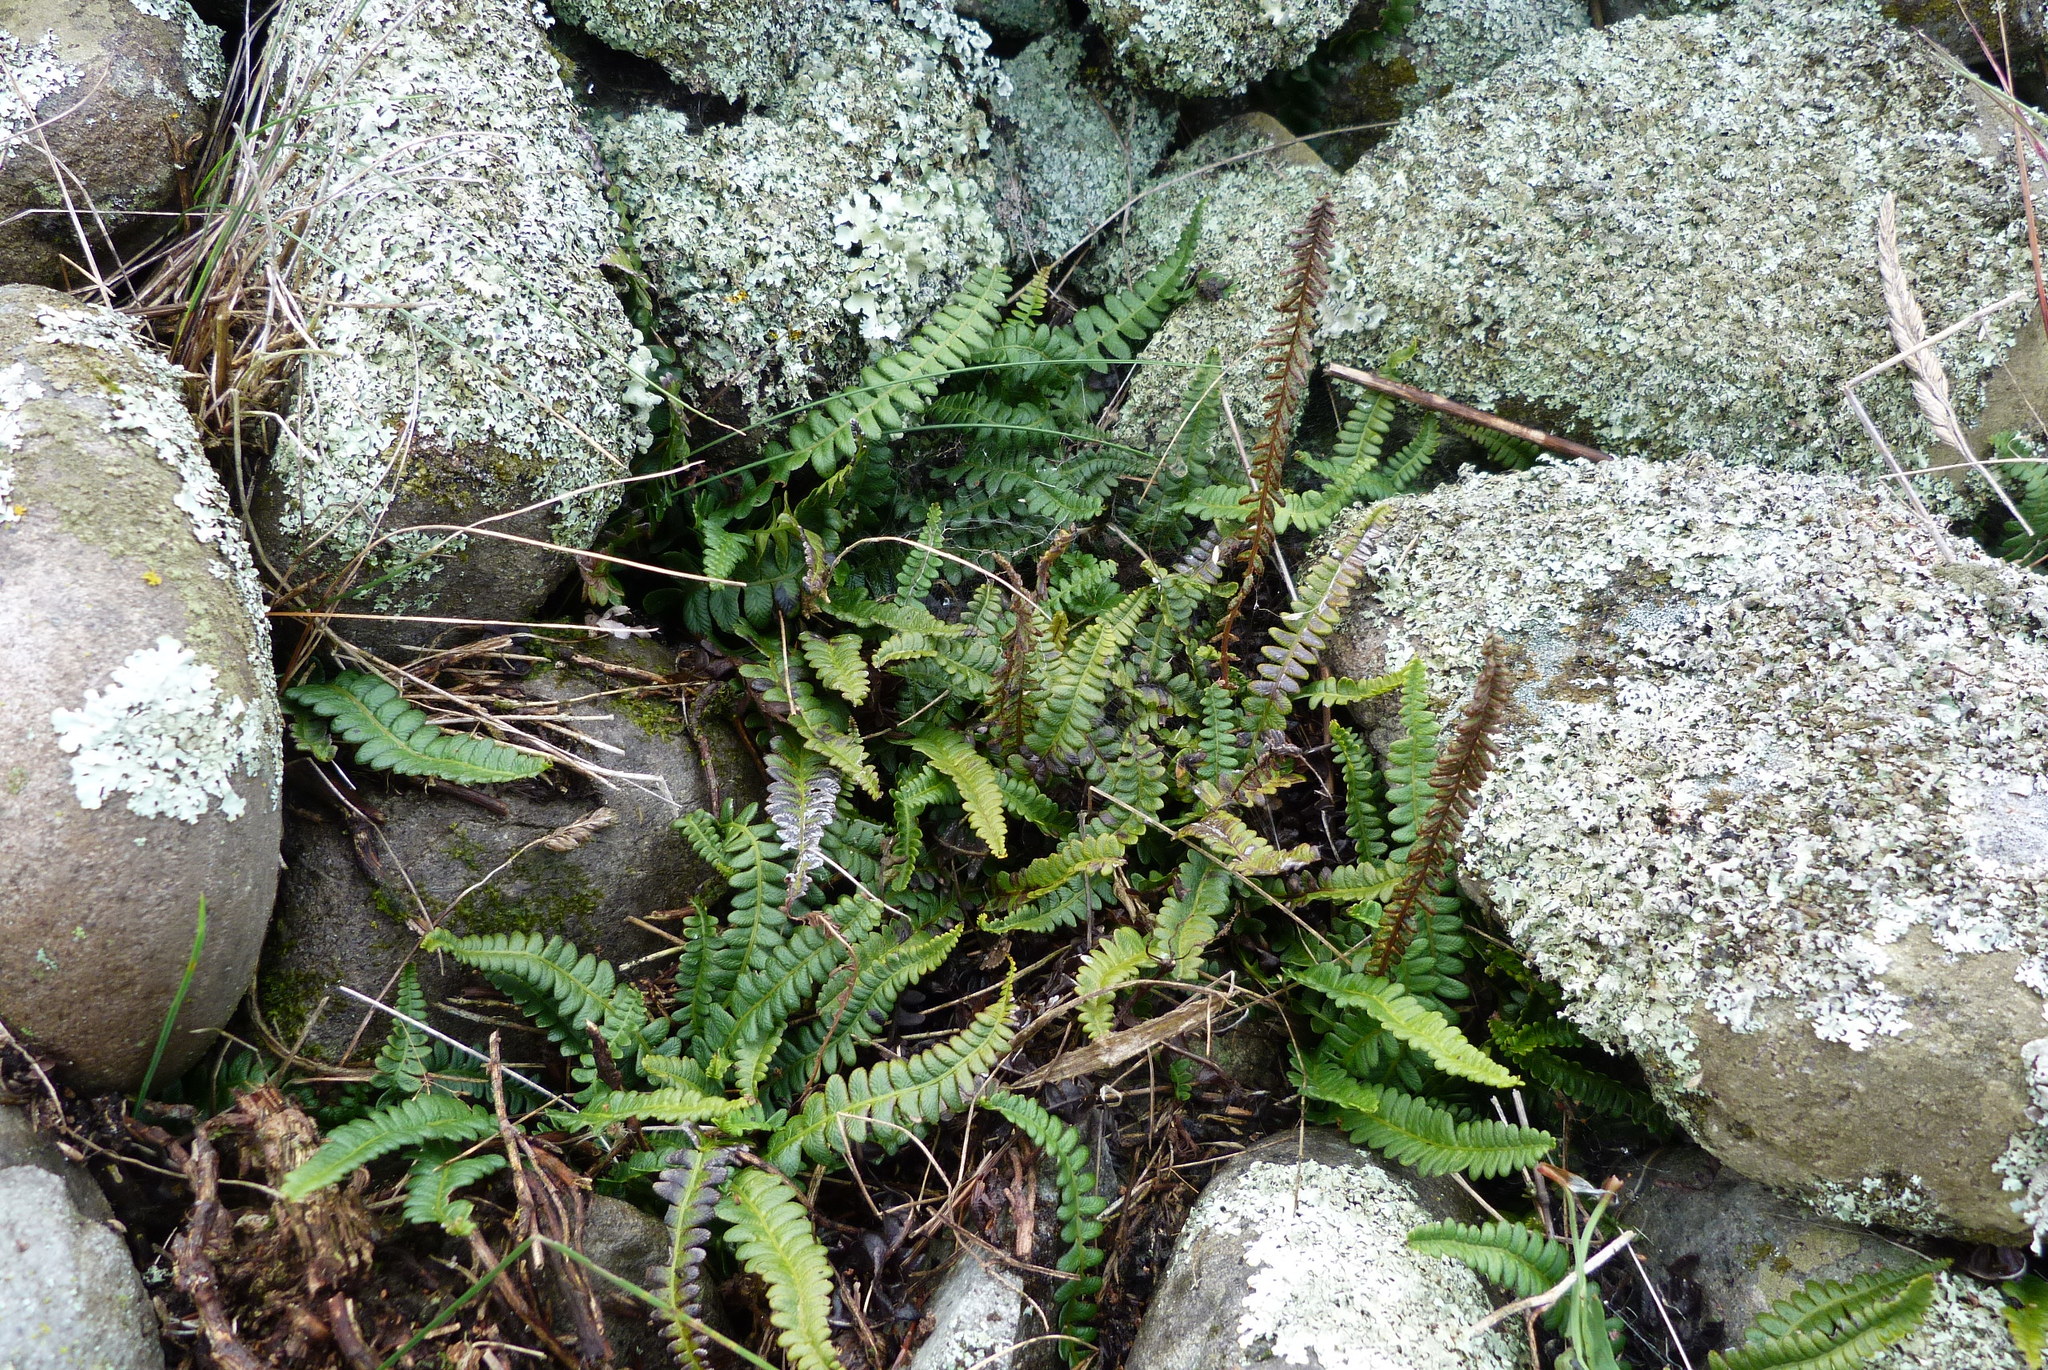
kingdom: Plantae
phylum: Tracheophyta
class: Polypodiopsida
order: Polypodiales
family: Blechnaceae
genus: Austroblechnum
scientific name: Austroblechnum penna-marina
